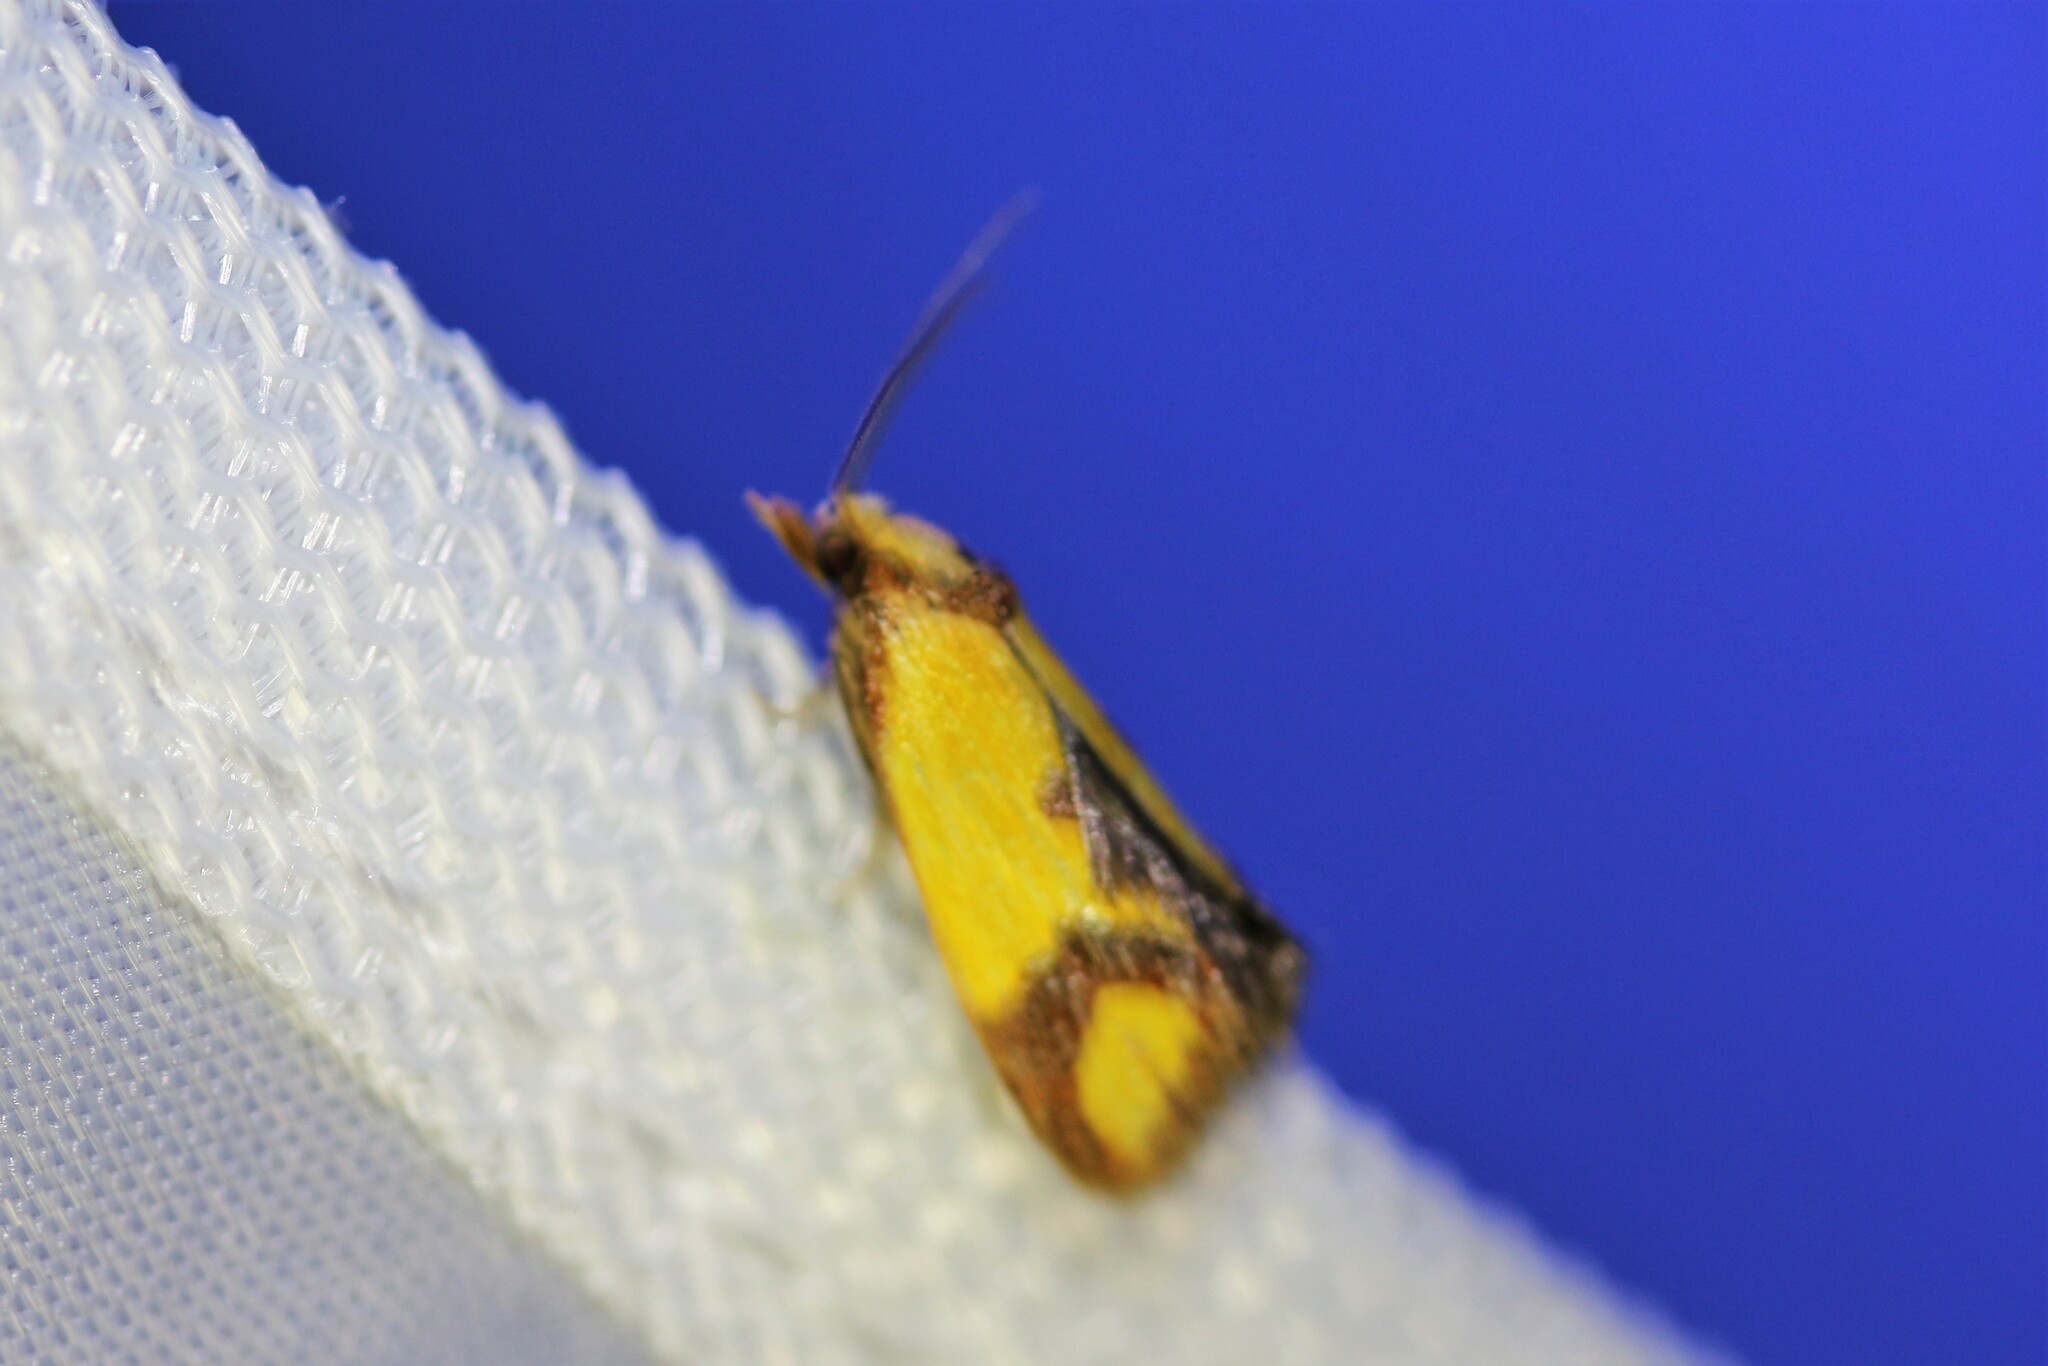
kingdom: Animalia
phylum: Arthropoda
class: Insecta
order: Lepidoptera
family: Tortricidae
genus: Agapeta
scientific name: Agapeta zoegana
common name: Sulfur knapweed root moth
